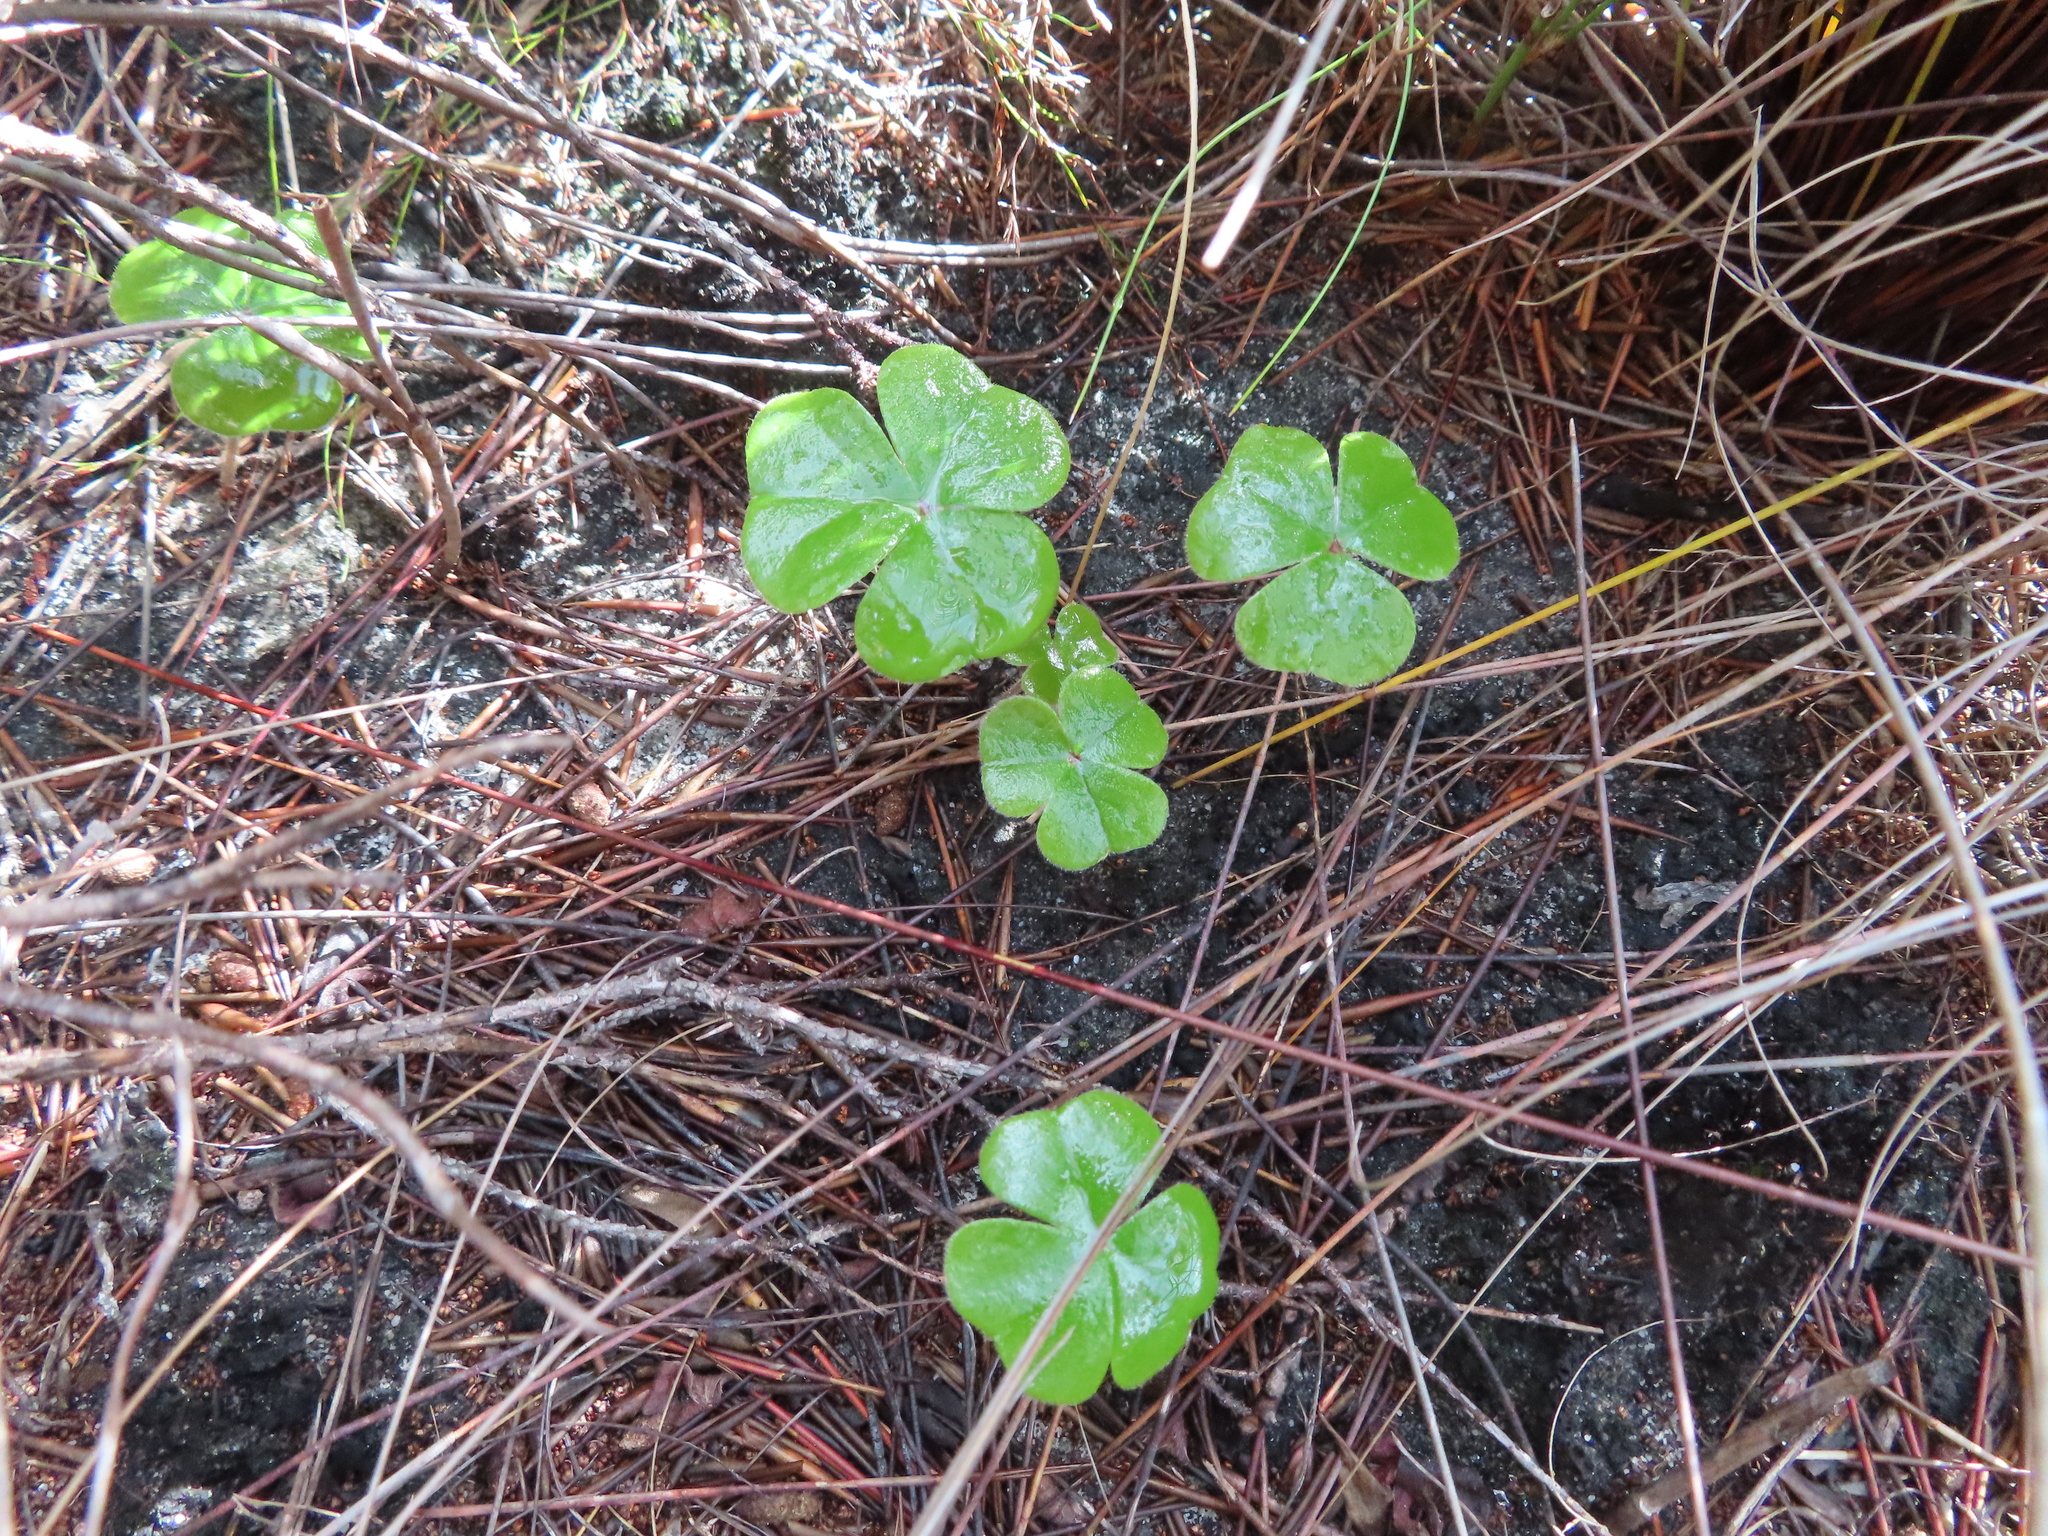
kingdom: Plantae
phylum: Tracheophyta
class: Magnoliopsida
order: Oxalidales
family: Oxalidaceae
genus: Oxalis
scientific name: Oxalis truncatula
